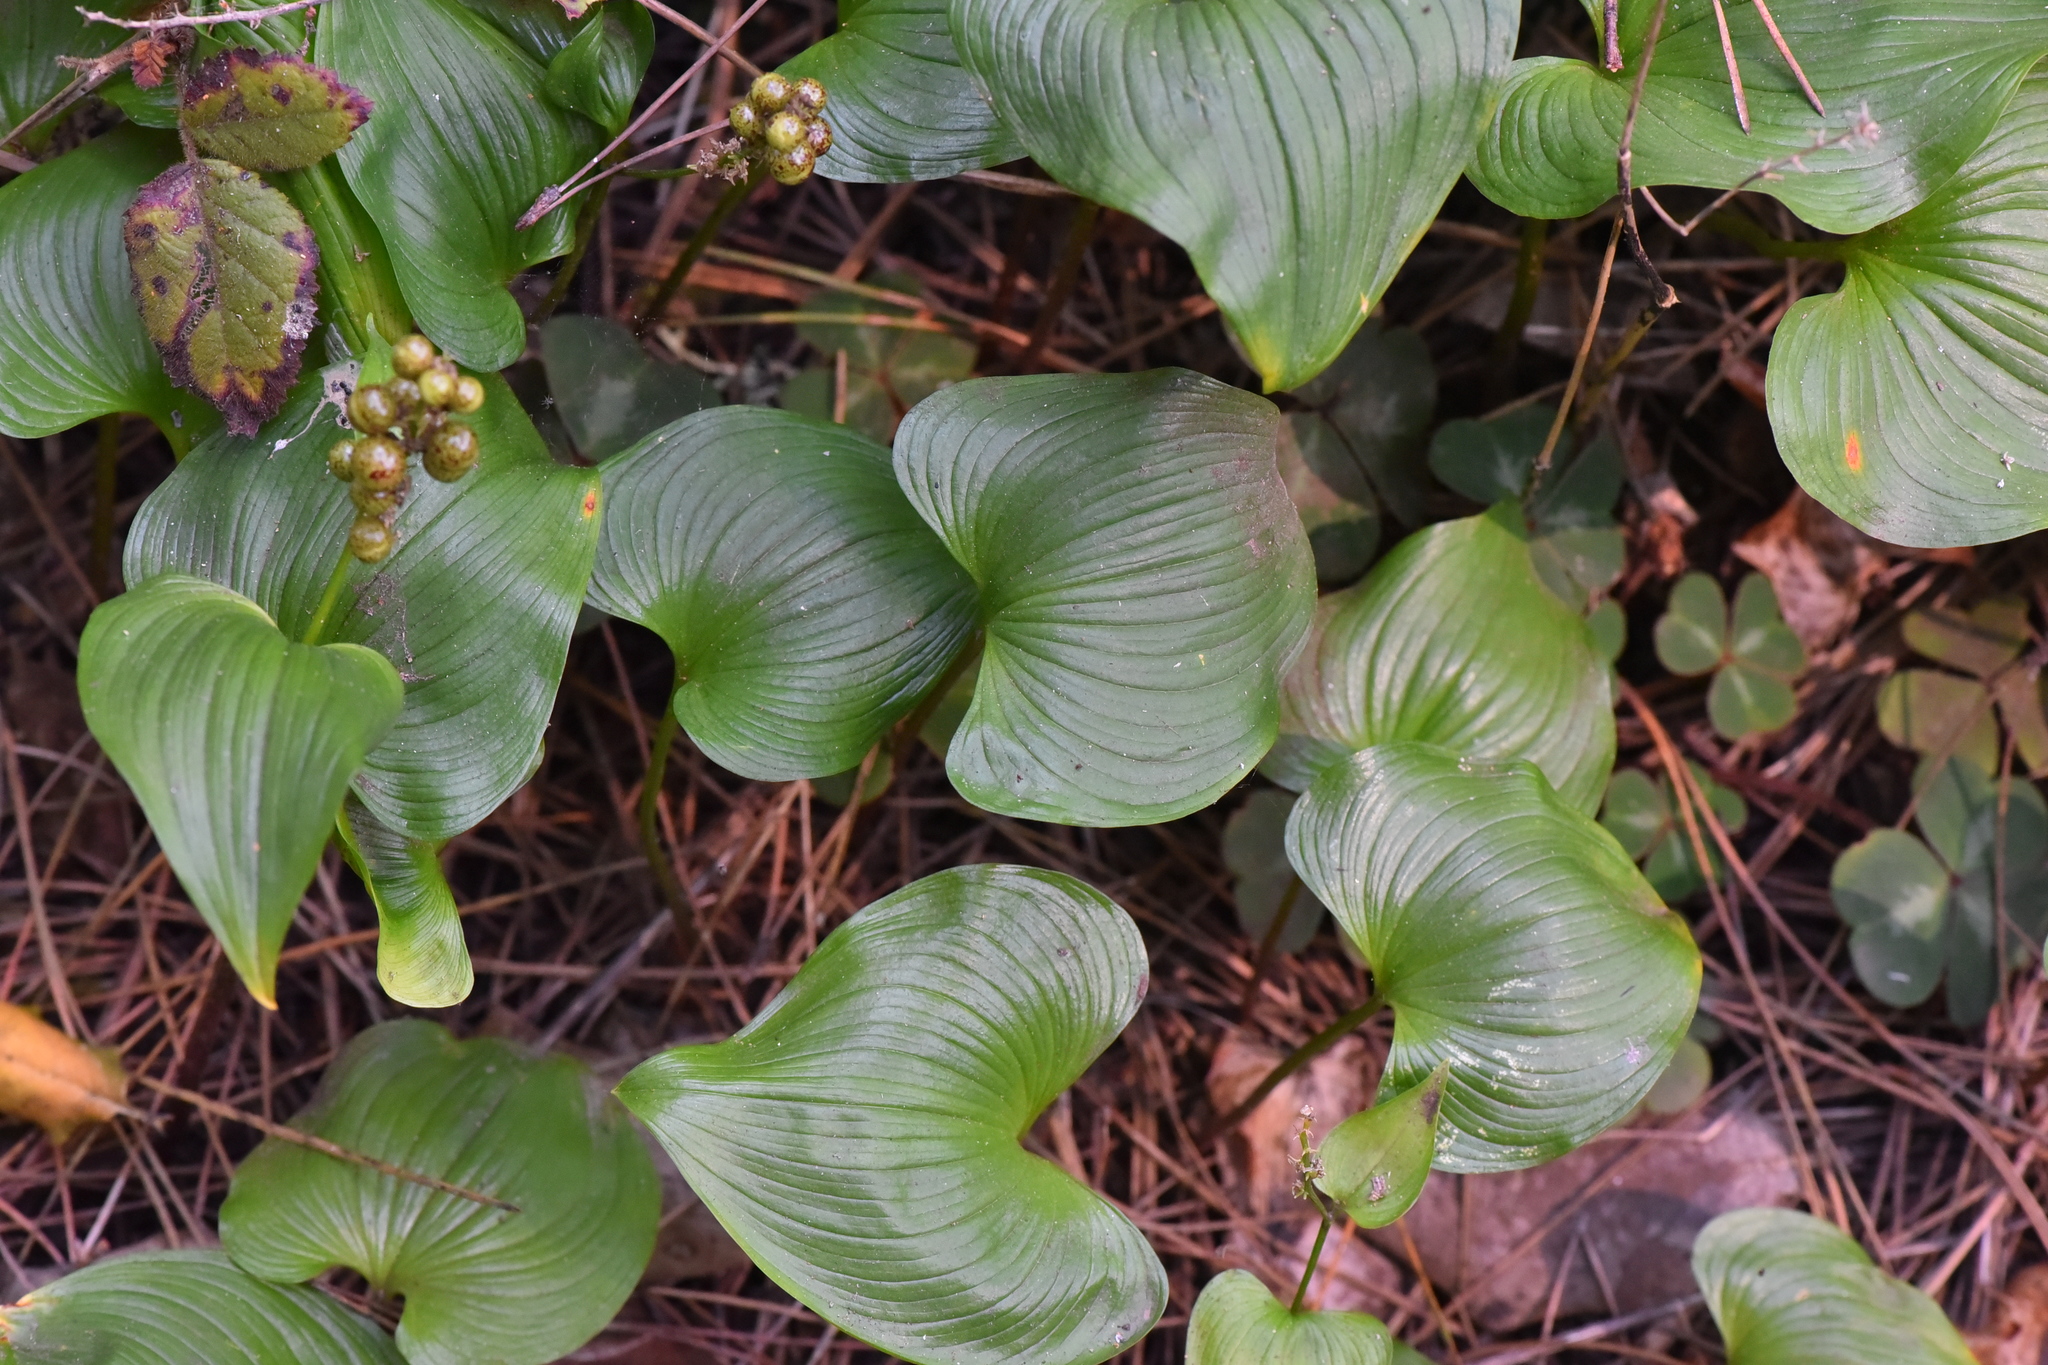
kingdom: Plantae
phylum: Tracheophyta
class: Liliopsida
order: Asparagales
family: Asparagaceae
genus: Maianthemum
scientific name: Maianthemum dilatatum
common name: False lily-of-the-valley
